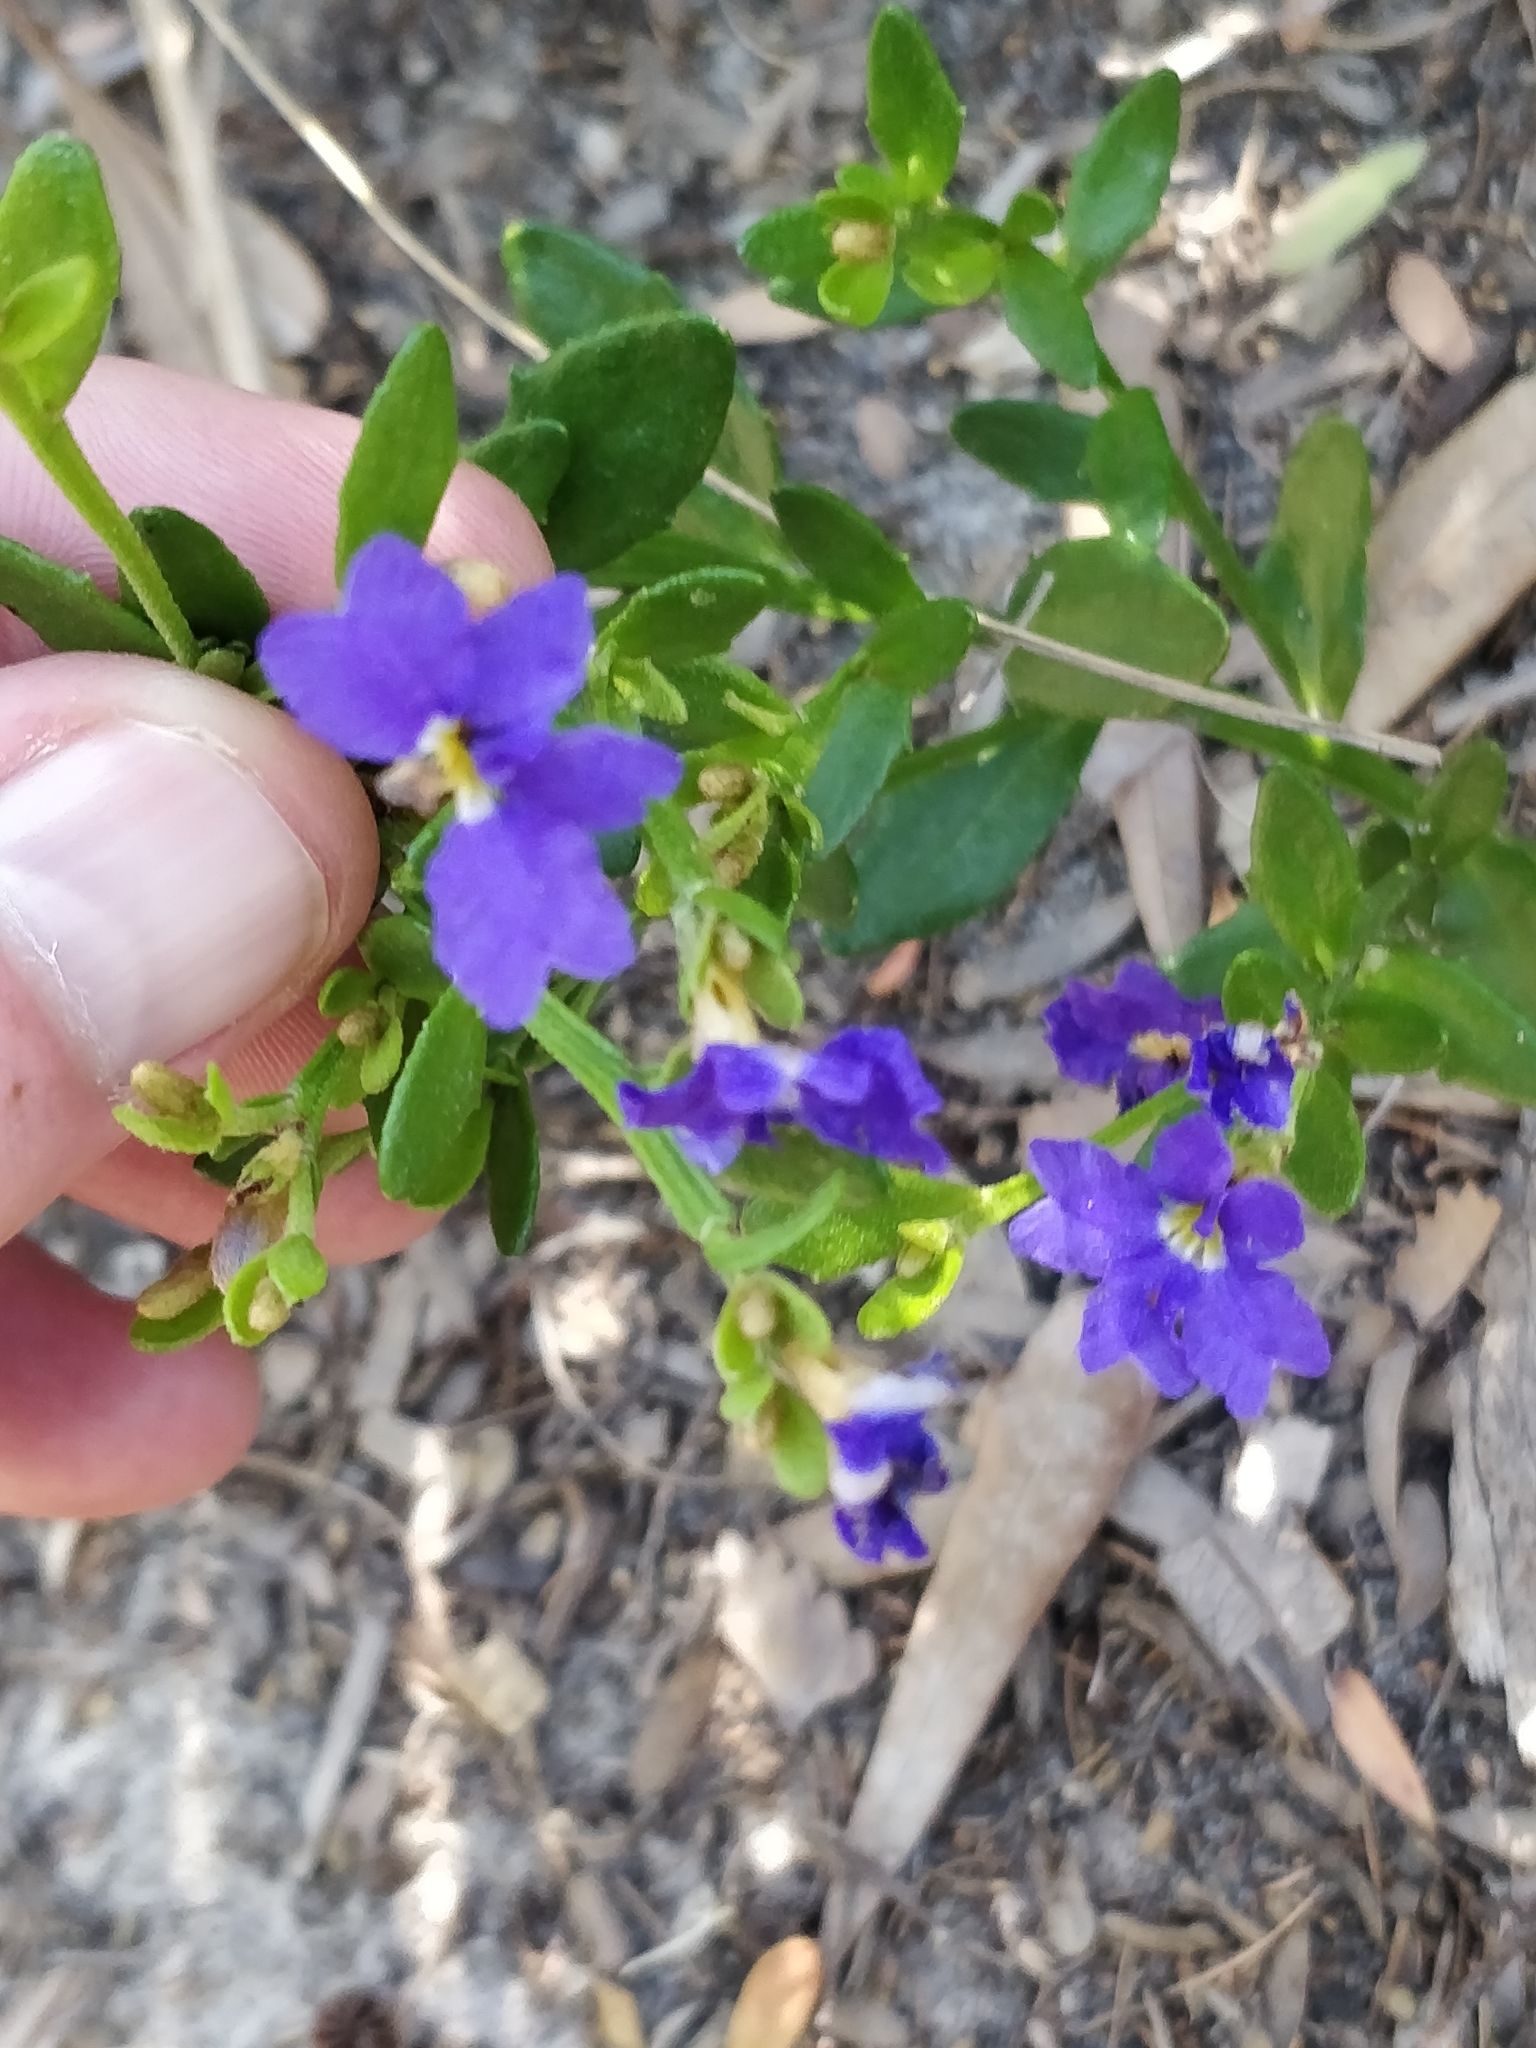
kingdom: Plantae
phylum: Tracheophyta
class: Magnoliopsida
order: Asterales
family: Goodeniaceae
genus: Dampiera
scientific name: Dampiera stricta
